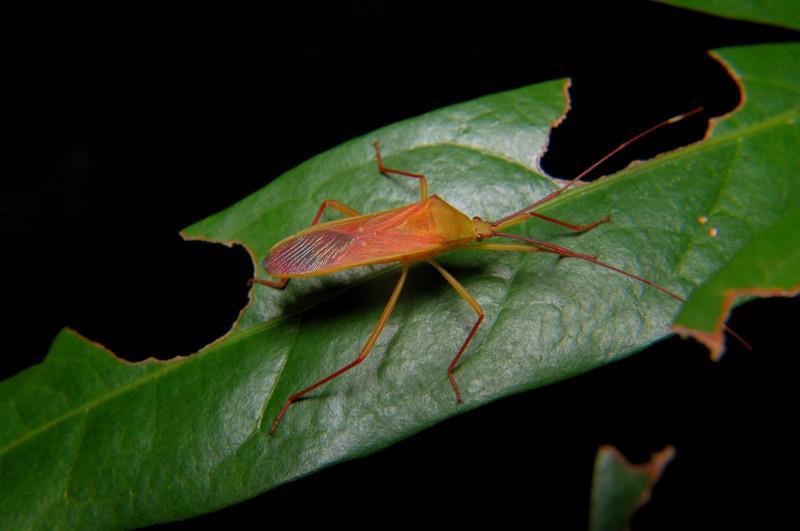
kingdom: Animalia
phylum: Arthropoda
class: Insecta
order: Hemiptera
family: Coreidae
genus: Homoeocerus
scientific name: Homoeocerus biguttatus
